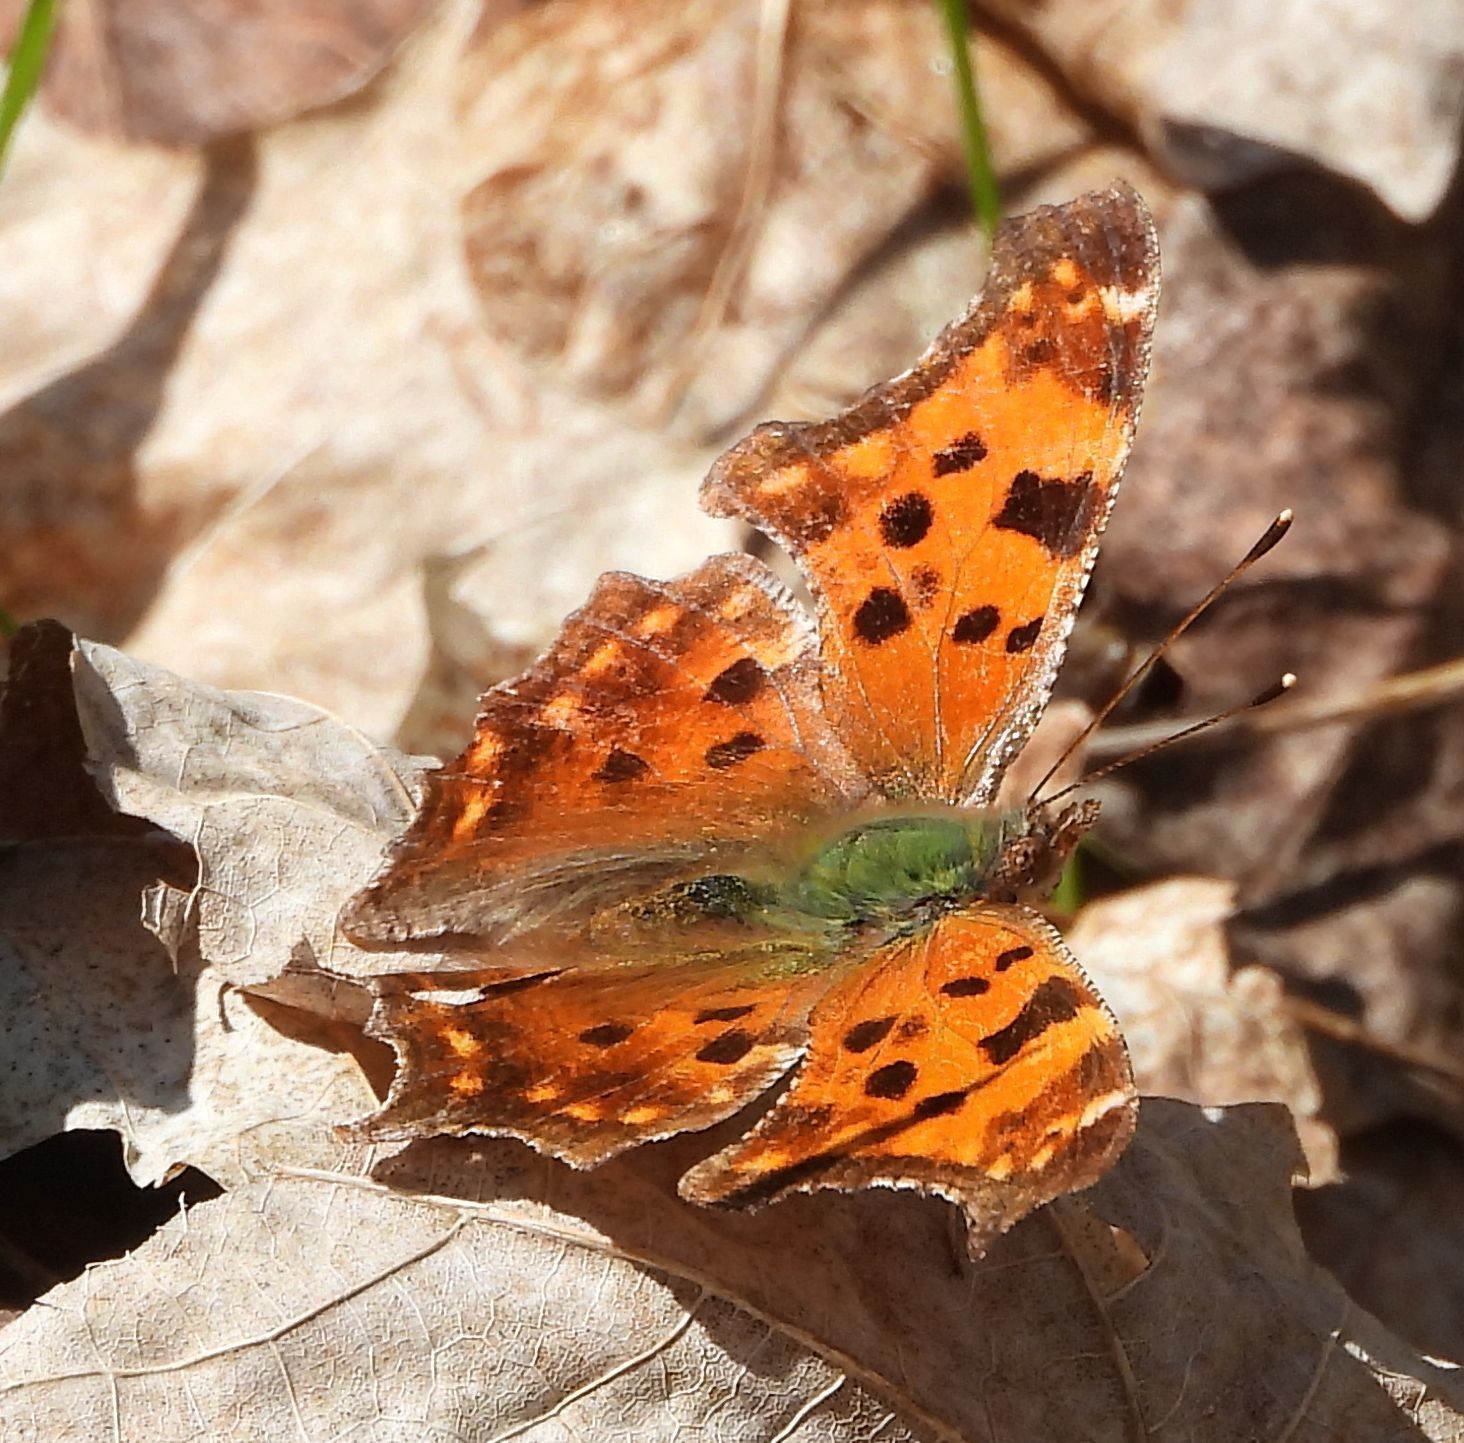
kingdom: Animalia
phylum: Arthropoda
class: Insecta
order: Lepidoptera
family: Nymphalidae
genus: Polygonia
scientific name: Polygonia comma
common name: Eastern comma
